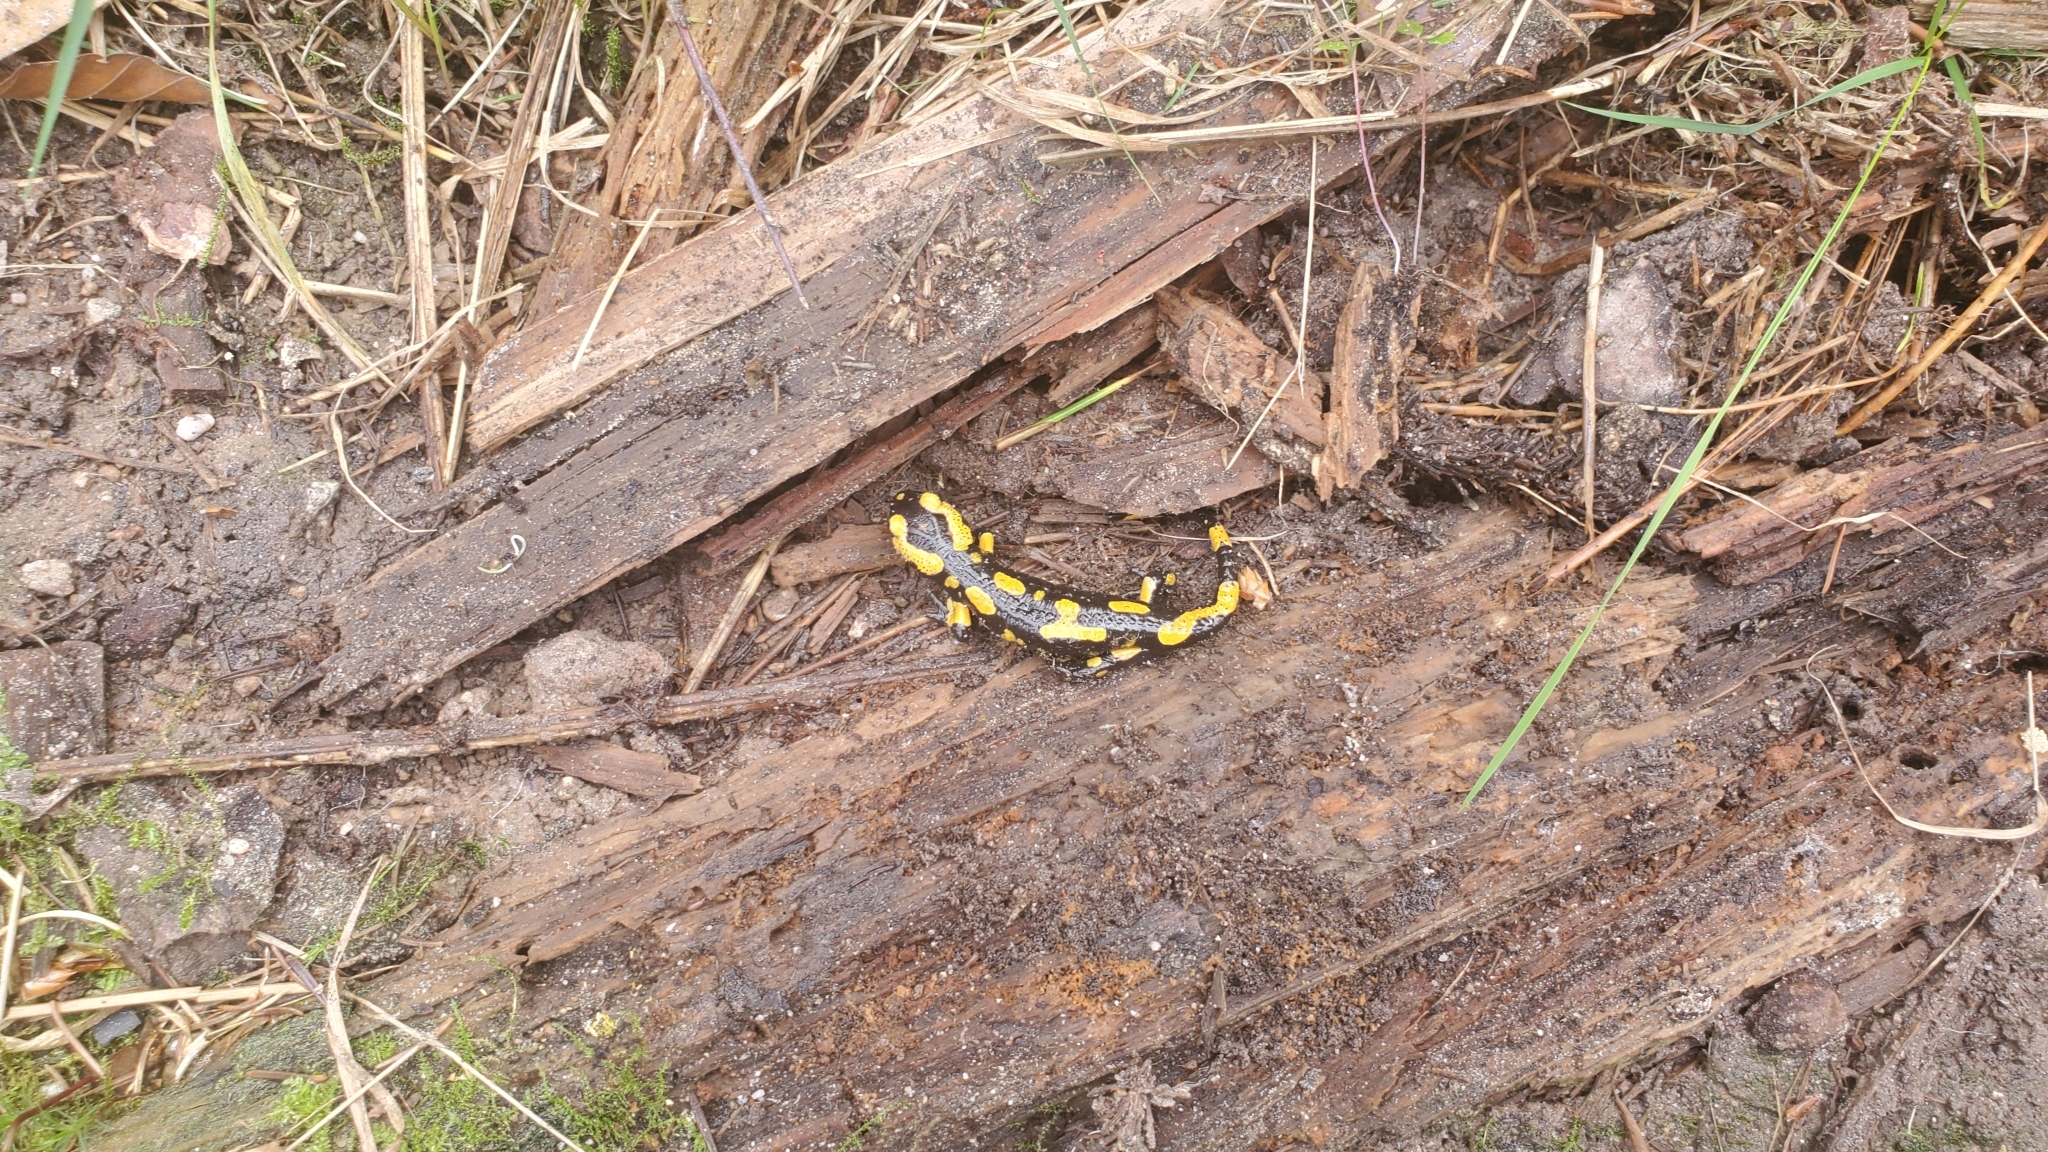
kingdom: Animalia
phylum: Chordata
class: Amphibia
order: Caudata
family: Salamandridae
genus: Salamandra
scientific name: Salamandra salamandra
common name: Fire salamander
